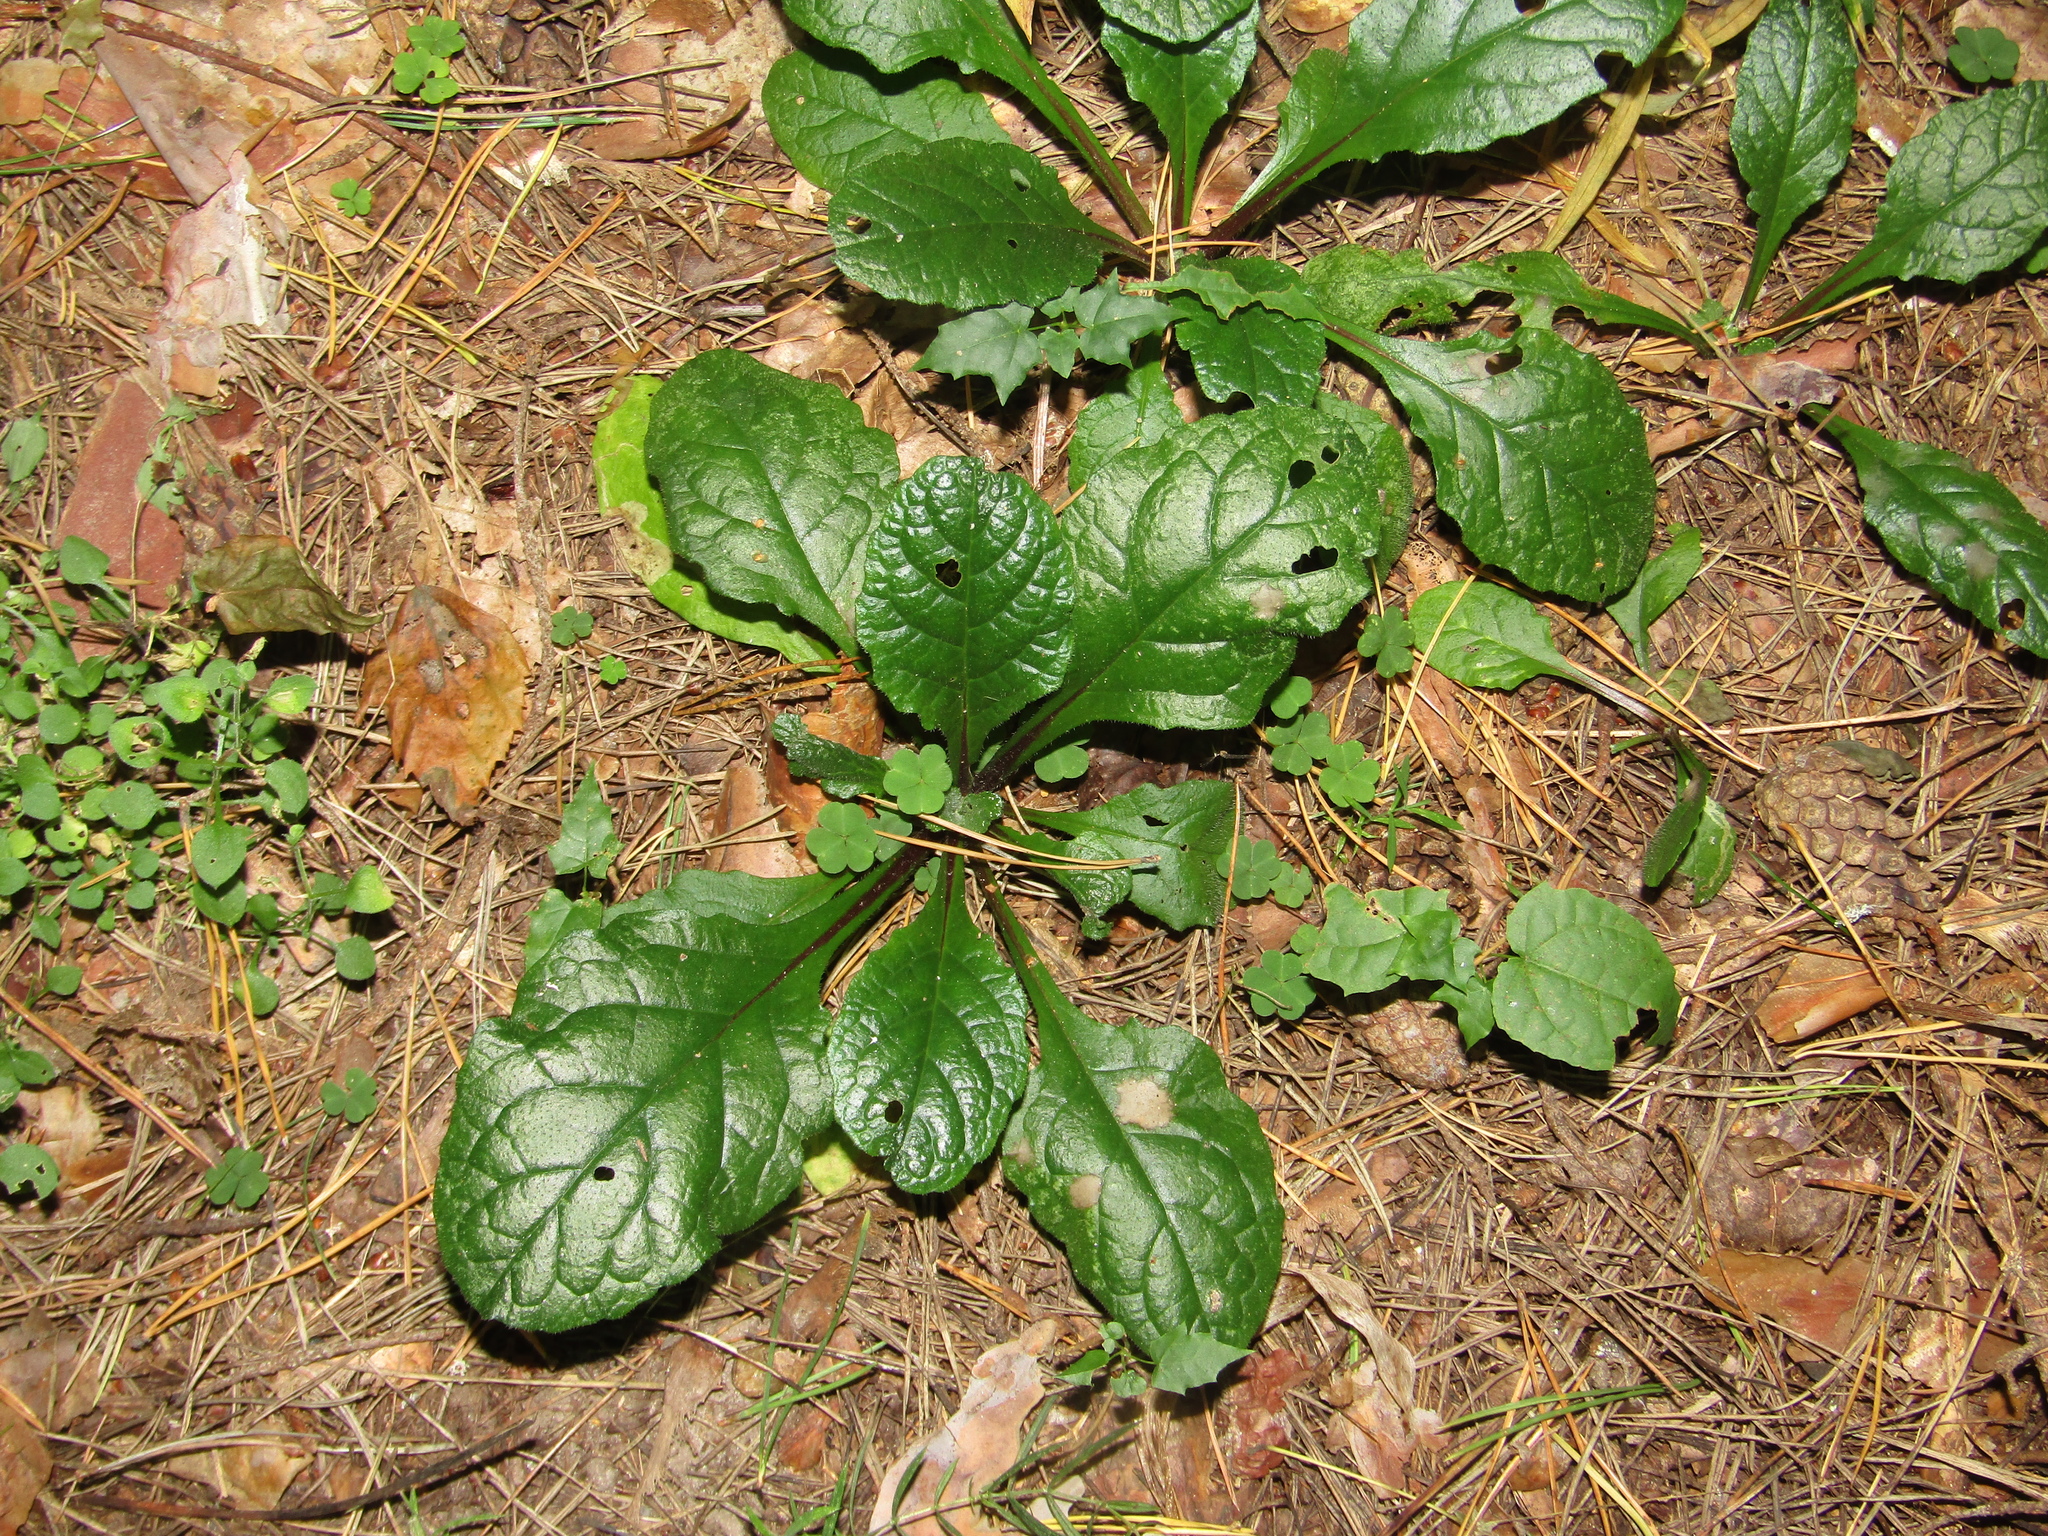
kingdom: Plantae
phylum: Tracheophyta
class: Magnoliopsida
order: Lamiales
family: Lamiaceae
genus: Ajuga
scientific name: Ajuga reptans
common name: Bugle
